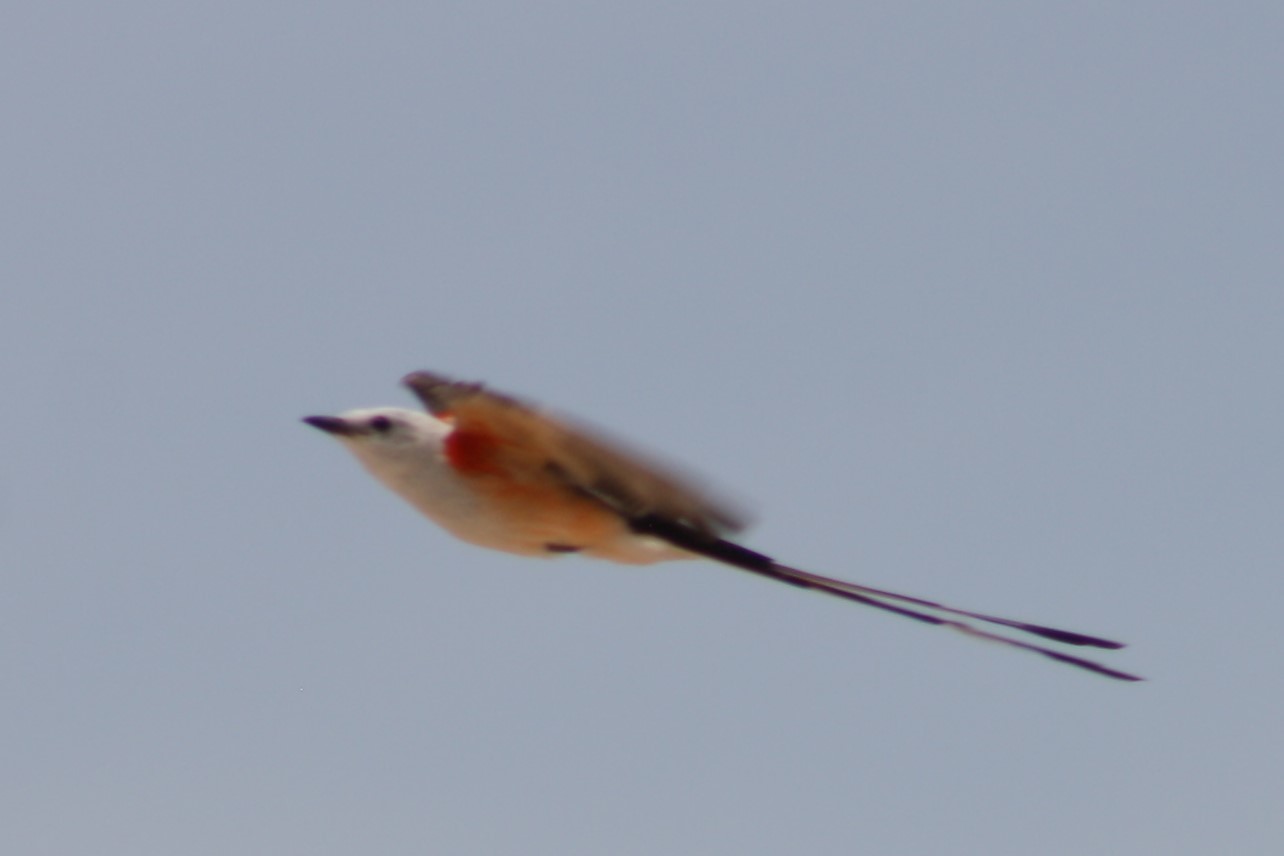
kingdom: Animalia
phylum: Chordata
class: Aves
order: Passeriformes
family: Tyrannidae
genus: Tyrannus
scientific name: Tyrannus forficatus
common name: Scissor-tailed flycatcher
